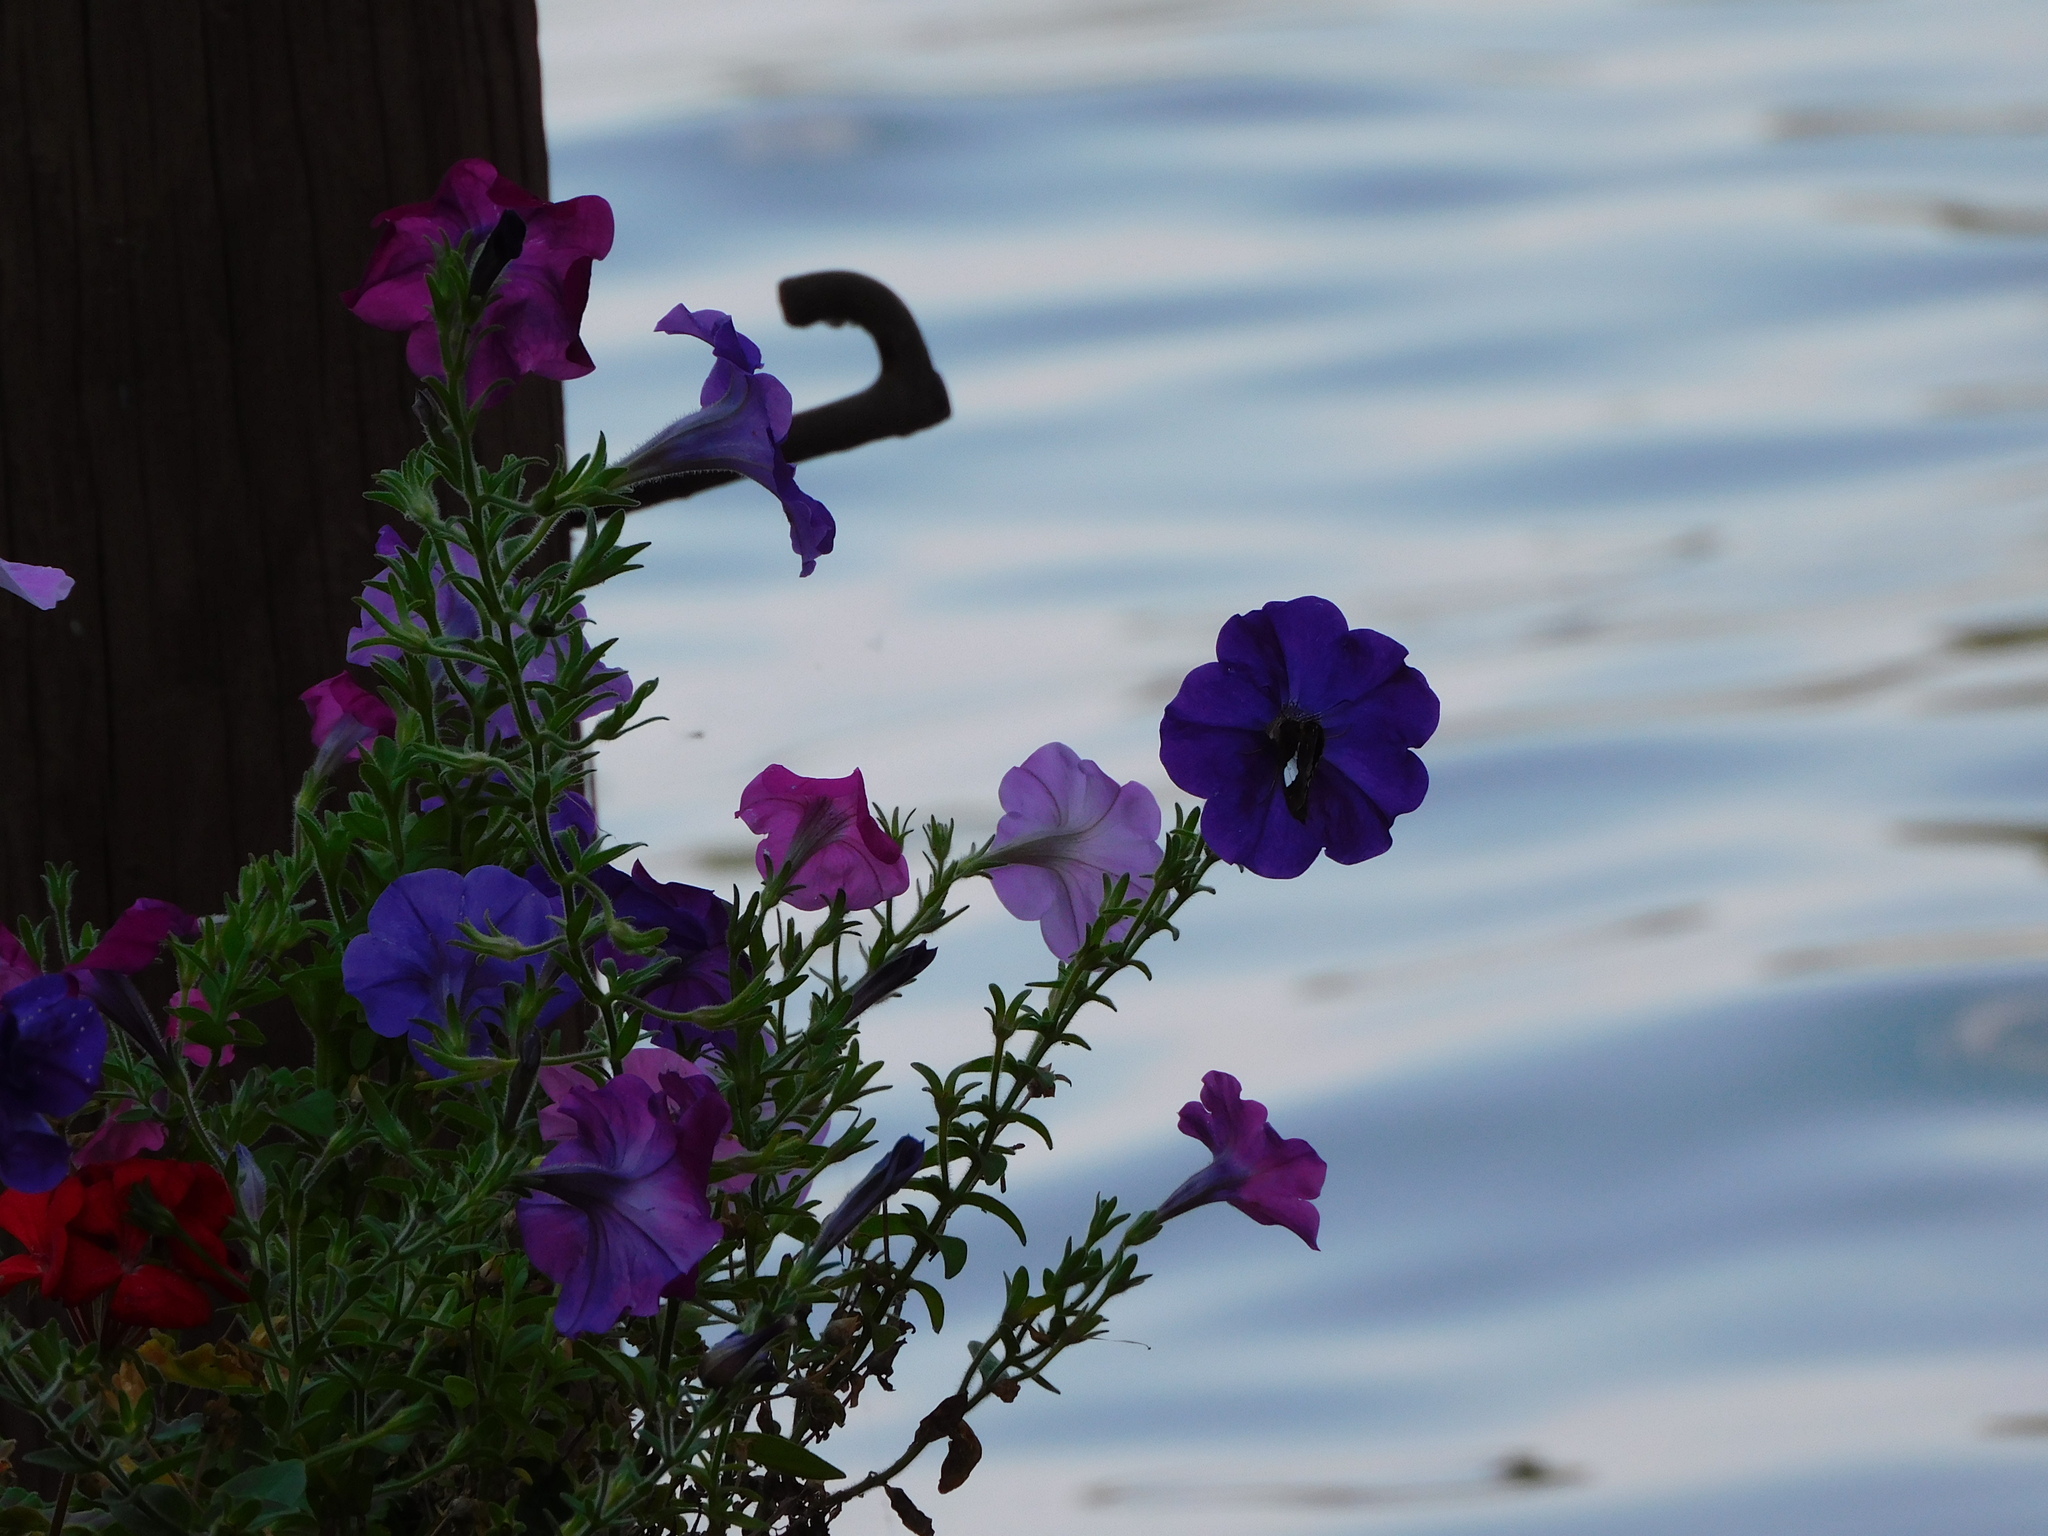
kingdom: Animalia
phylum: Arthropoda
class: Insecta
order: Lepidoptera
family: Hesperiidae
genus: Epargyreus
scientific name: Epargyreus clarus
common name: Silver-spotted skipper
